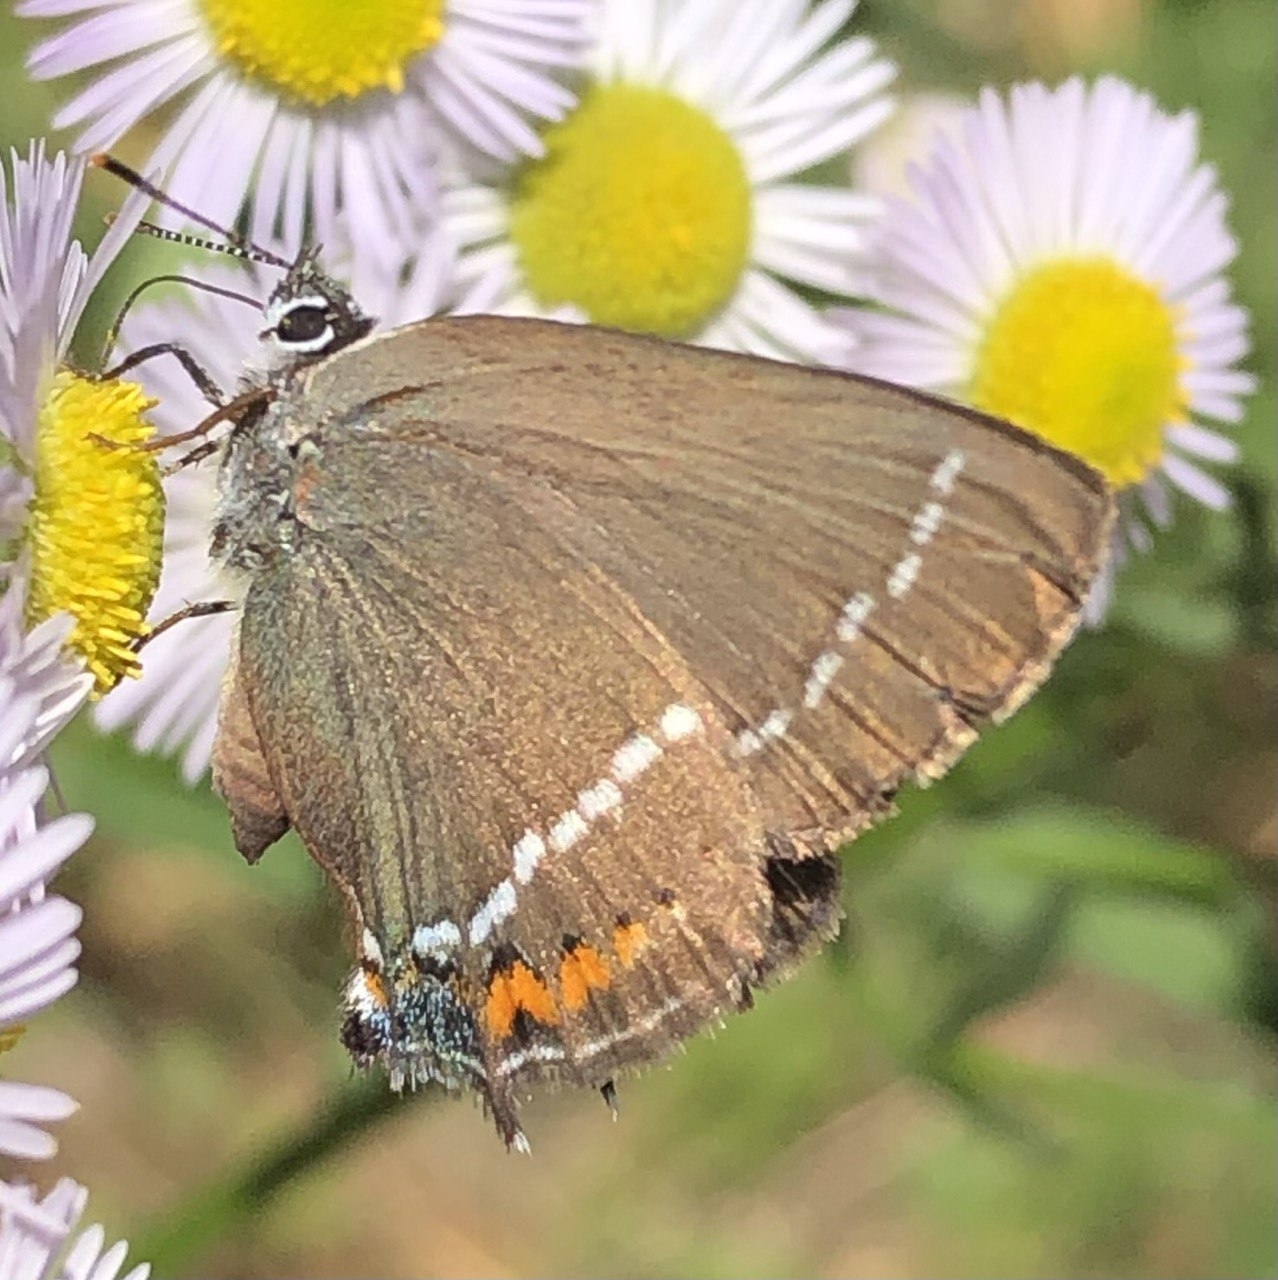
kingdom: Animalia
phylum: Arthropoda
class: Insecta
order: Lepidoptera
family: Lycaenidae
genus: Tuttiola
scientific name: Tuttiola spini
